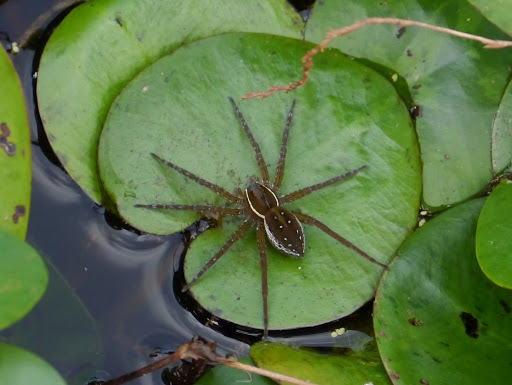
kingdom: Animalia
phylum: Arthropoda
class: Arachnida
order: Araneae
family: Pisauridae
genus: Dolomedes
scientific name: Dolomedes triton
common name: Six-spotted fishing spider
